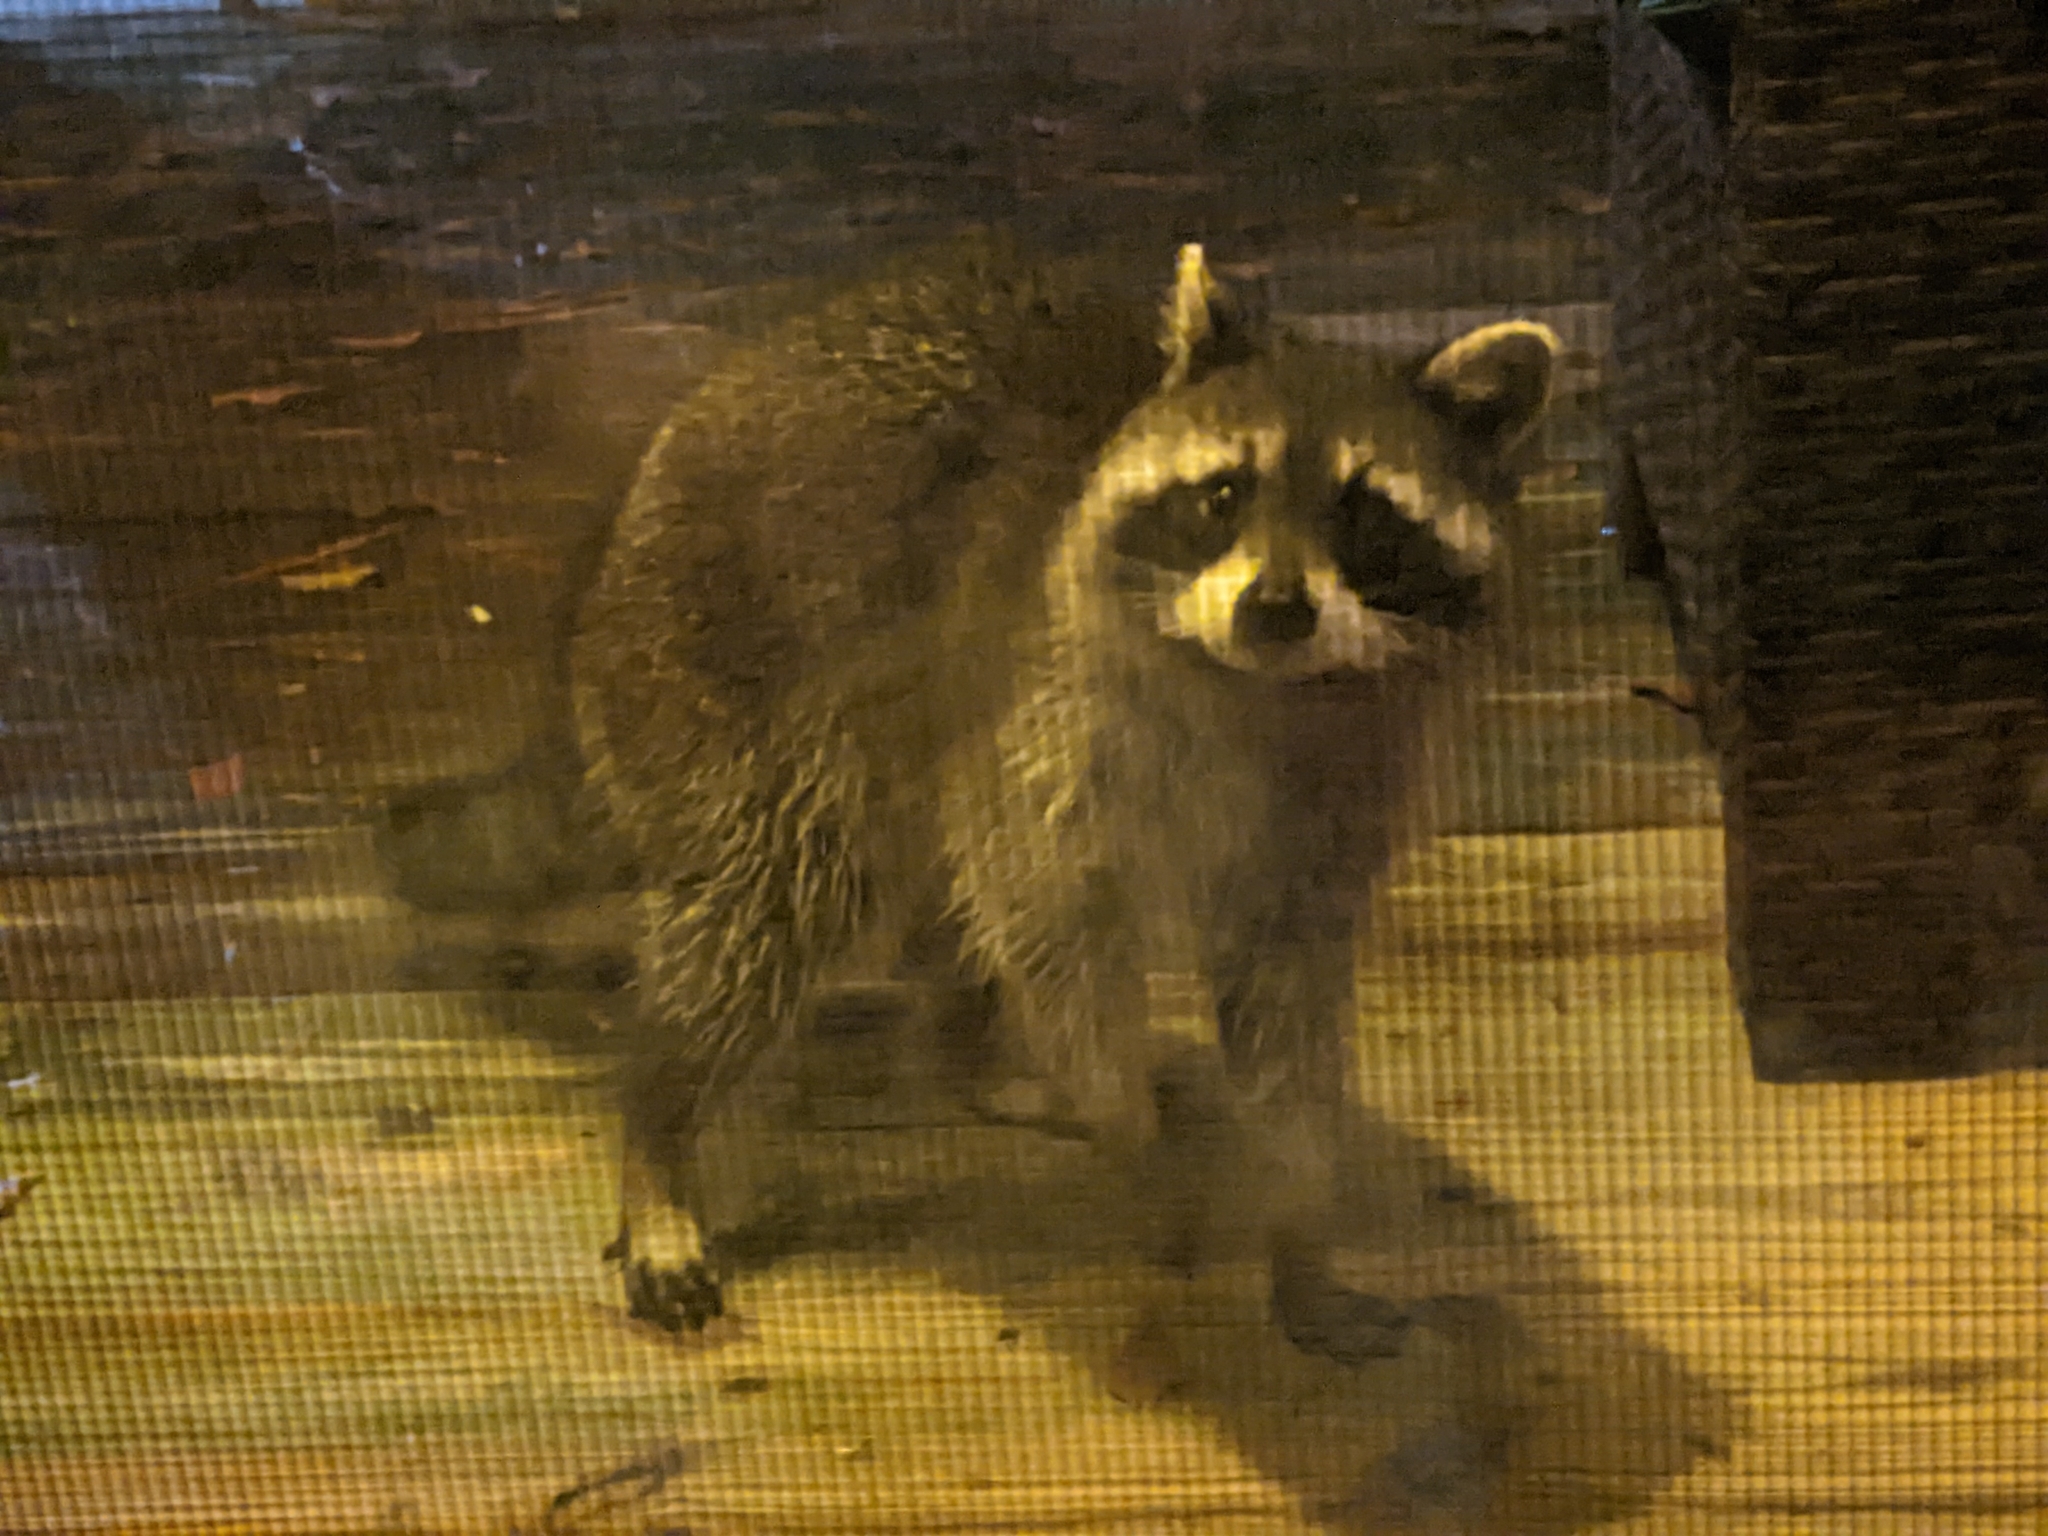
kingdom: Animalia
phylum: Chordata
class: Mammalia
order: Carnivora
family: Procyonidae
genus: Procyon
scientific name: Procyon lotor
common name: Raccoon
